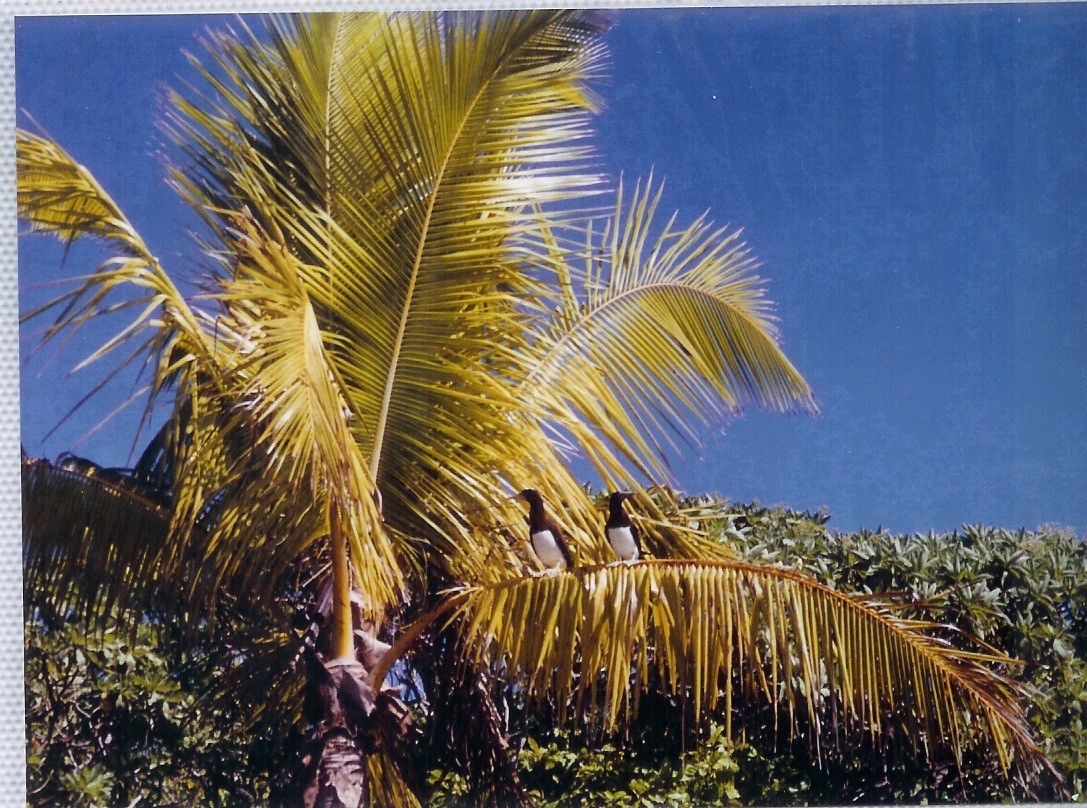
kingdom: Animalia
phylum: Chordata
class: Aves
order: Suliformes
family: Sulidae
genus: Sula
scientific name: Sula leucogaster
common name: Brown booby
